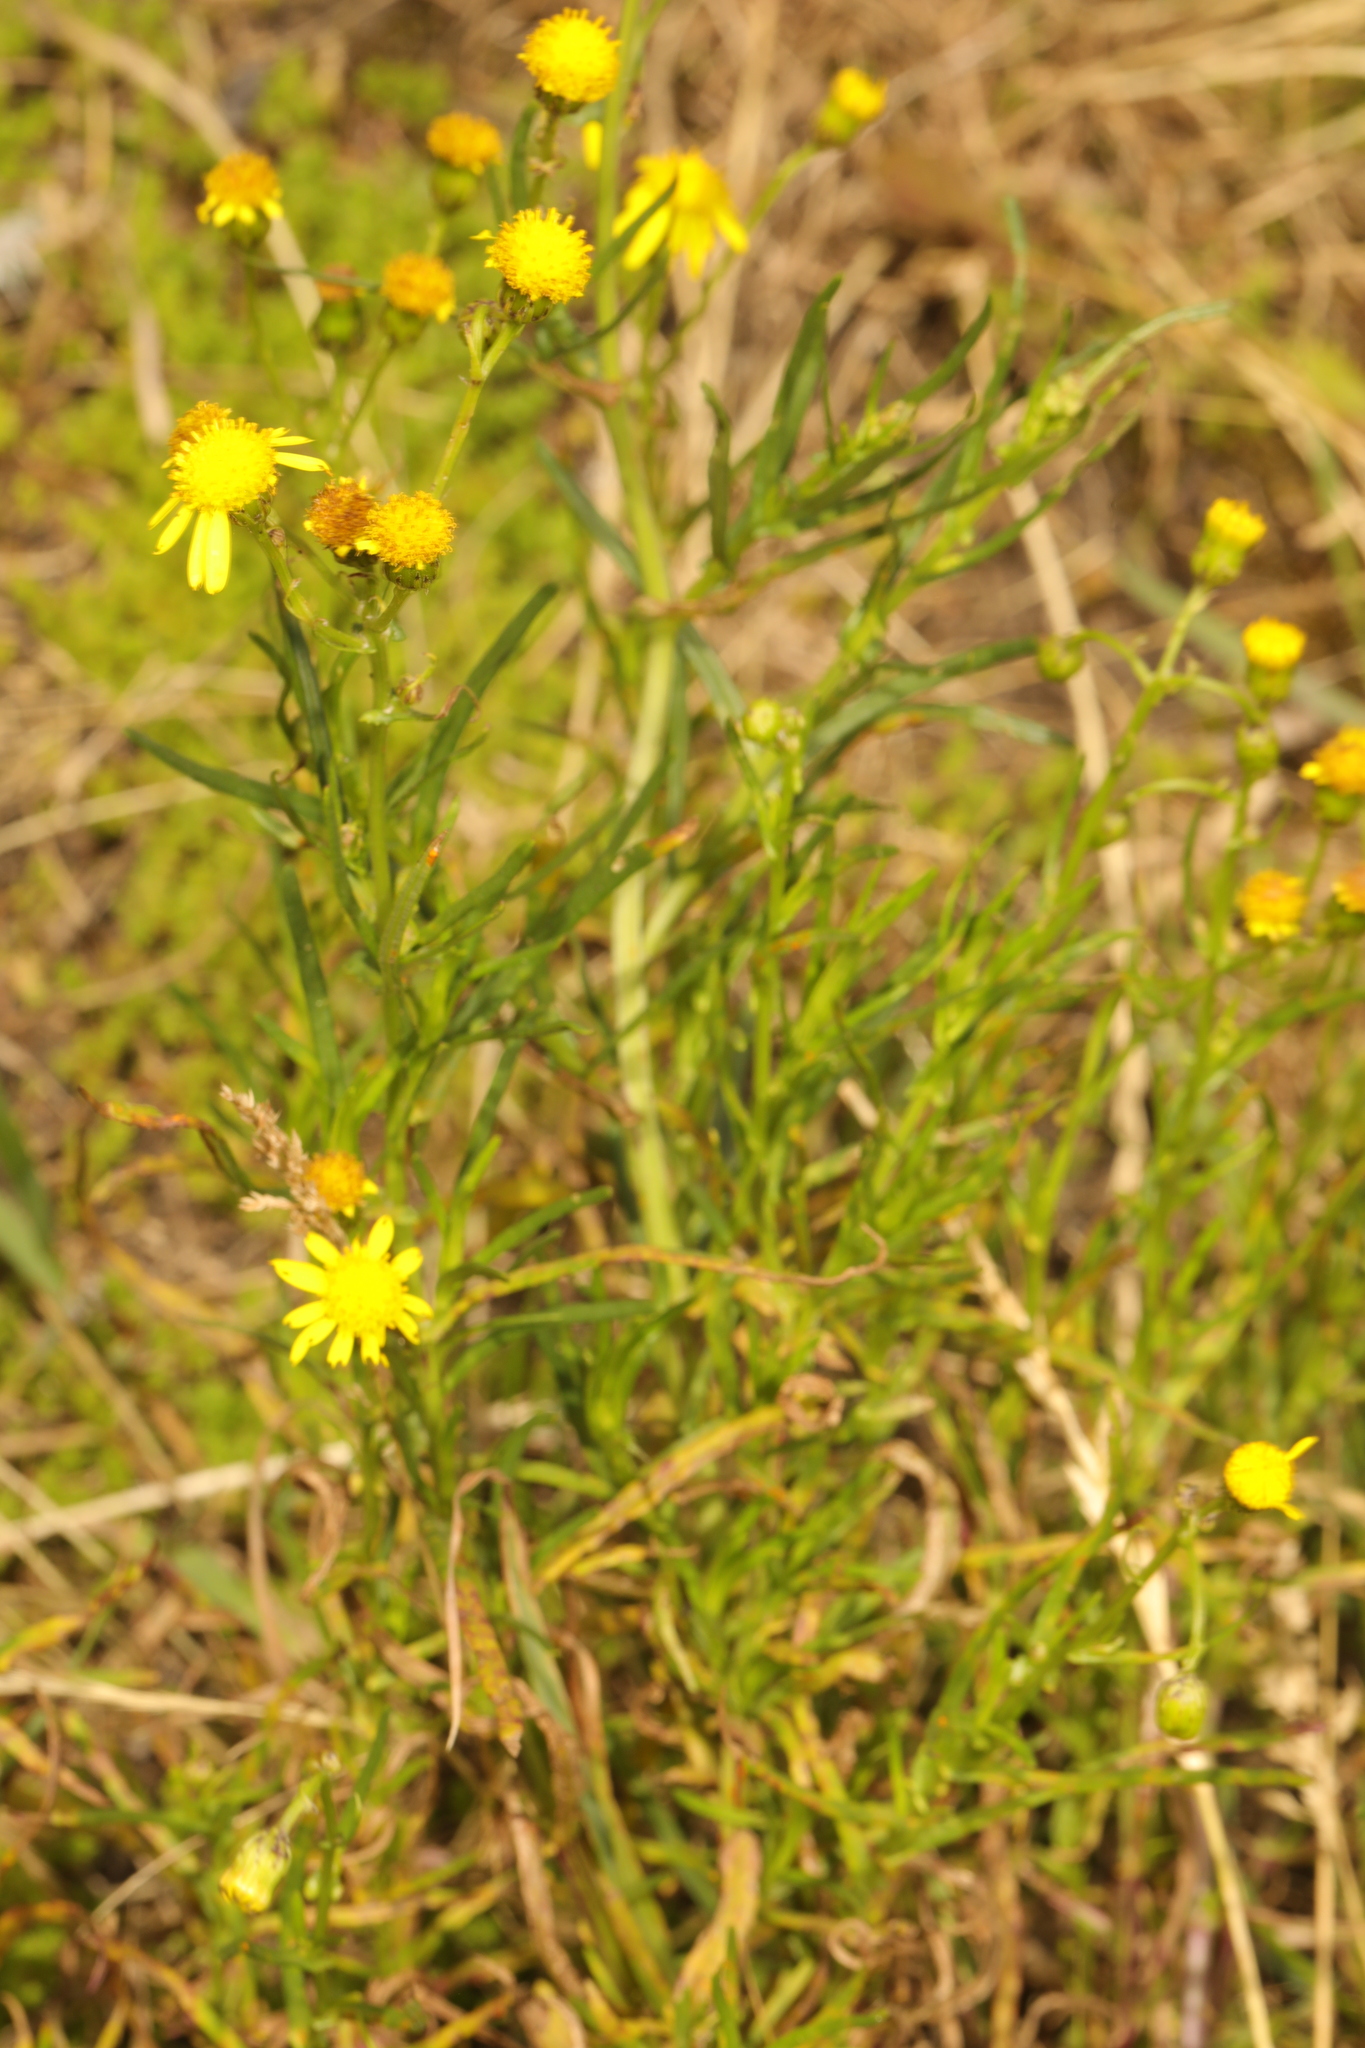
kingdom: Plantae
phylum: Tracheophyta
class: Magnoliopsida
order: Asterales
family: Asteraceae
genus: Senecio
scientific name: Senecio inaequidens
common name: Narrow-leaved ragwort
